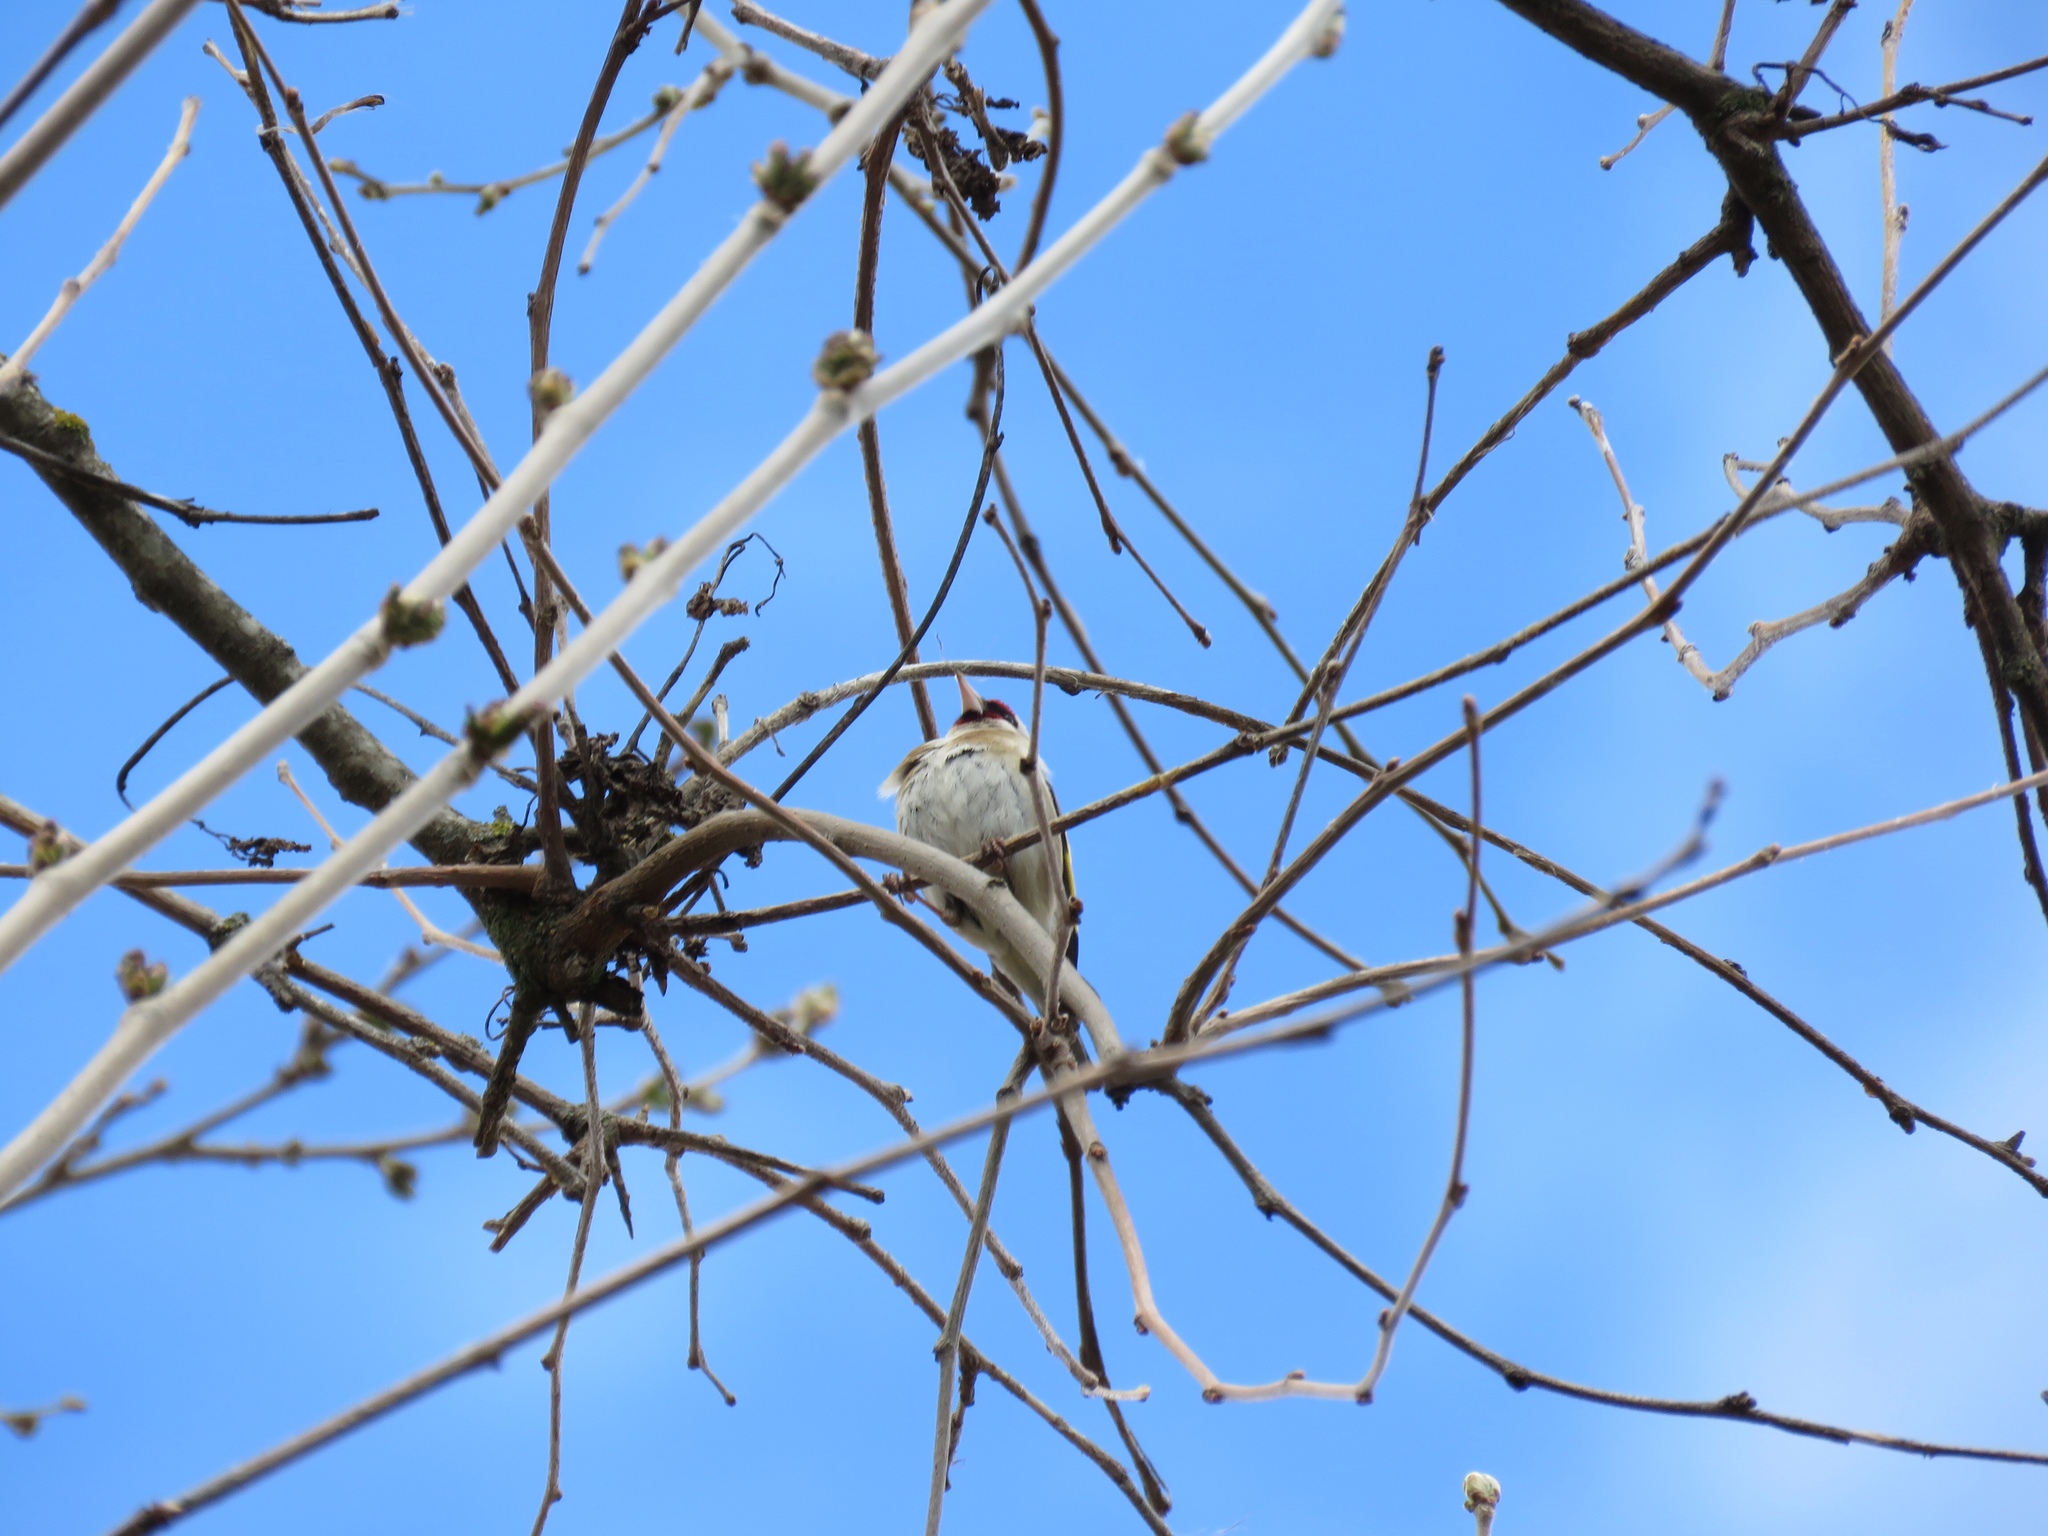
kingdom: Animalia
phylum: Chordata
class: Aves
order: Passeriformes
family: Fringillidae
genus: Carduelis
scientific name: Carduelis carduelis
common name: European goldfinch
